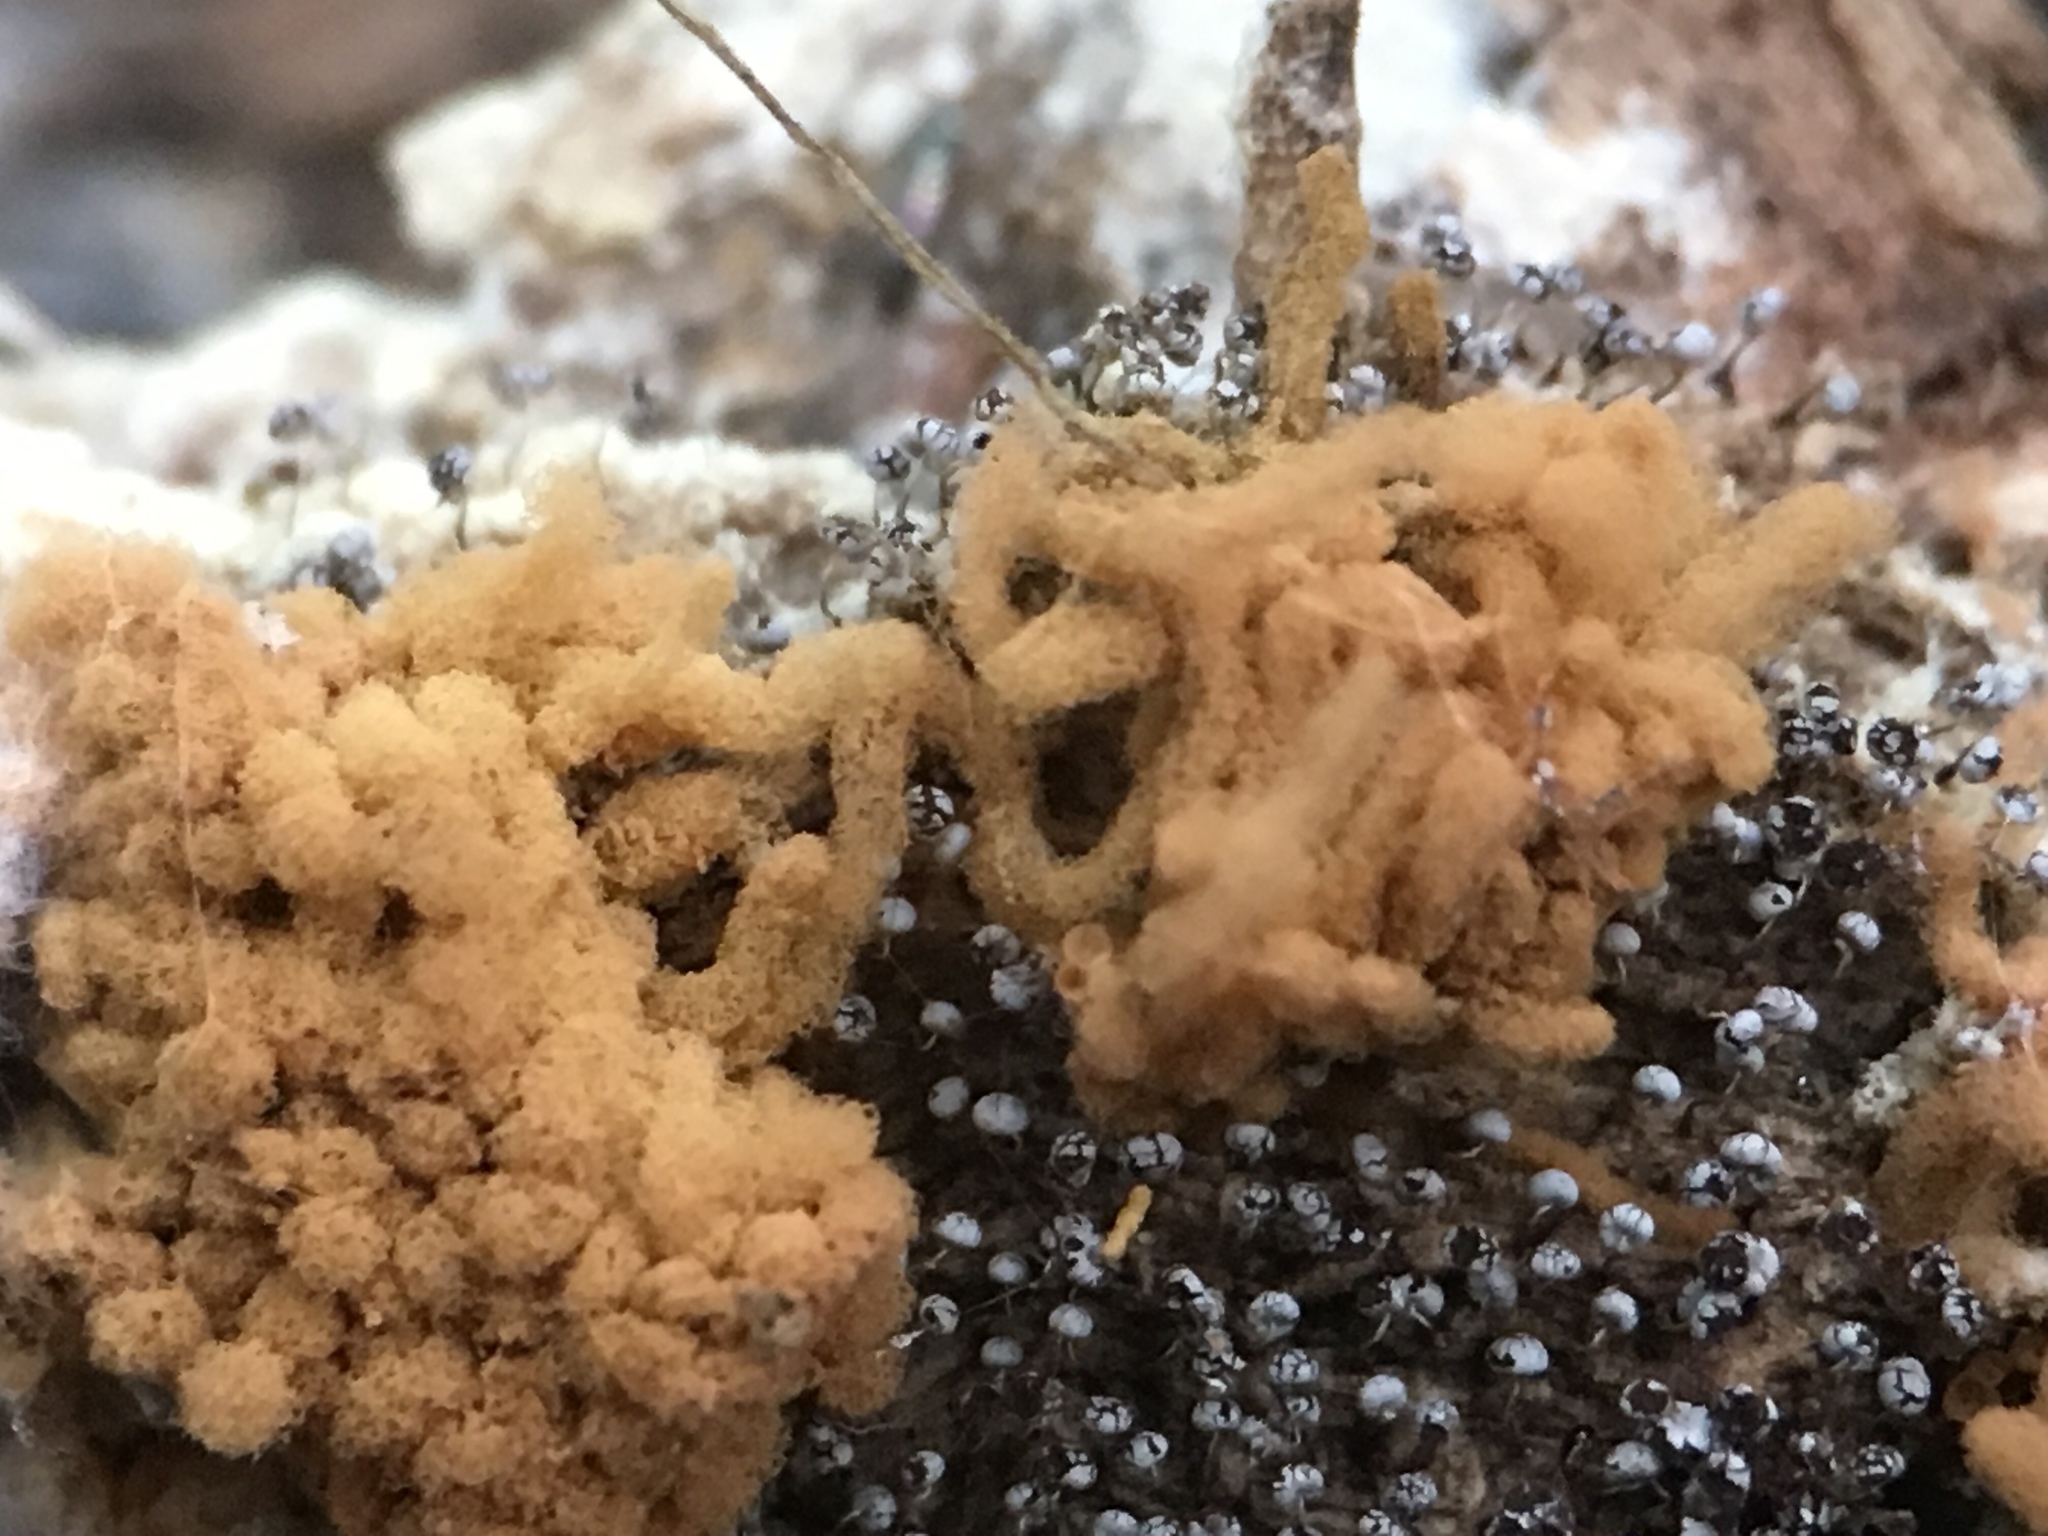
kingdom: Protozoa
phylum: Mycetozoa
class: Myxomycetes
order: Trichiales
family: Arcyriaceae
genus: Arcyria
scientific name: Arcyria obvelata
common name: Yellow carnival candy slime
